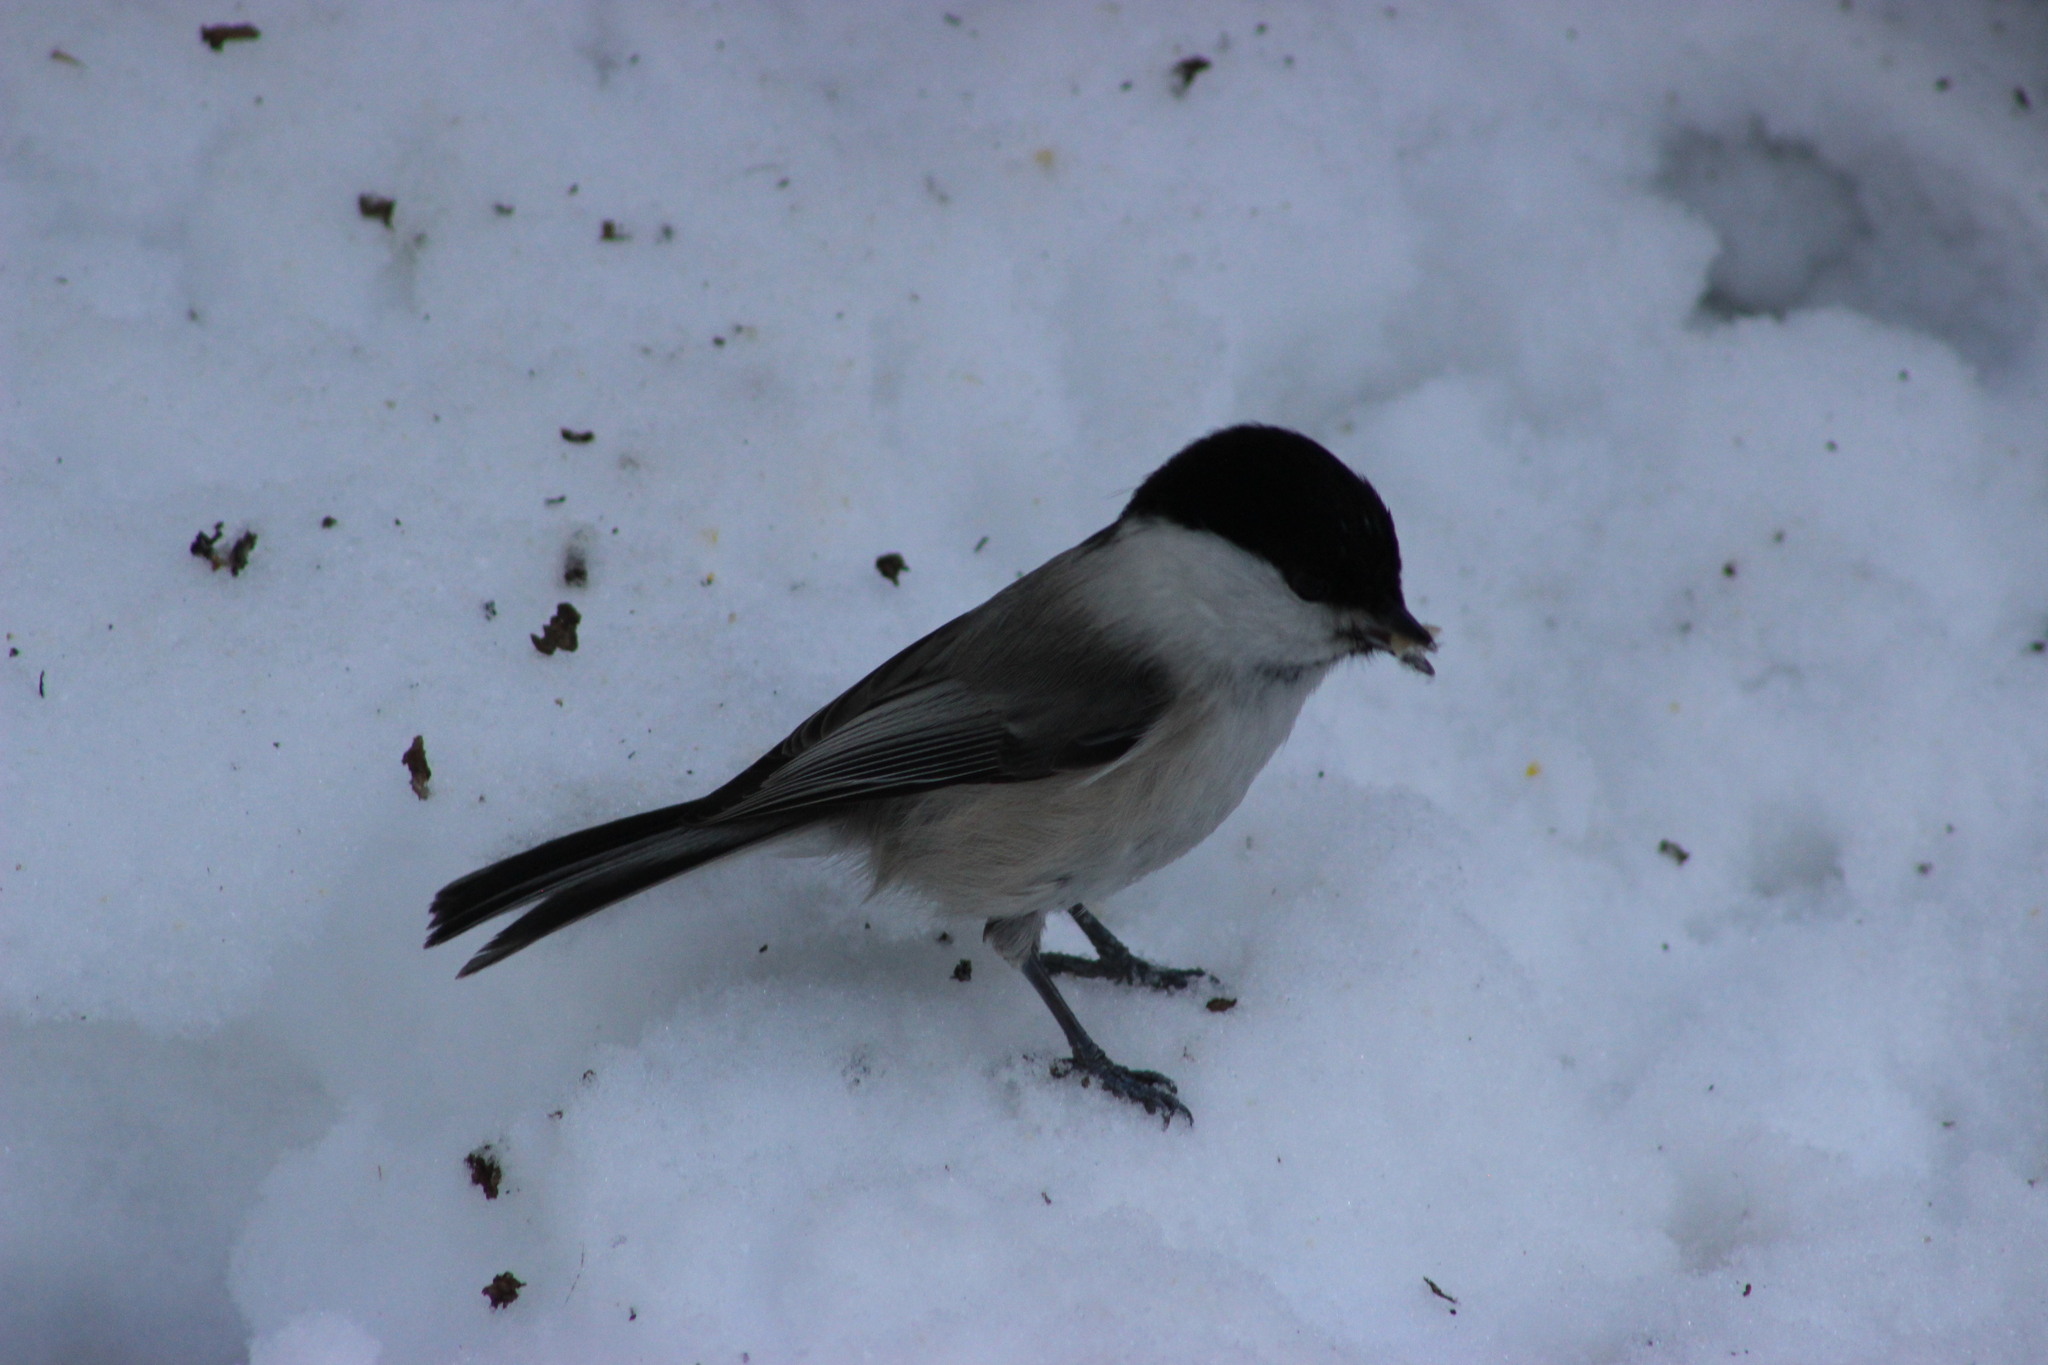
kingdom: Animalia
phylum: Chordata
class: Aves
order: Passeriformes
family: Paridae
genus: Poecile
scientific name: Poecile montanus
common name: Willow tit
